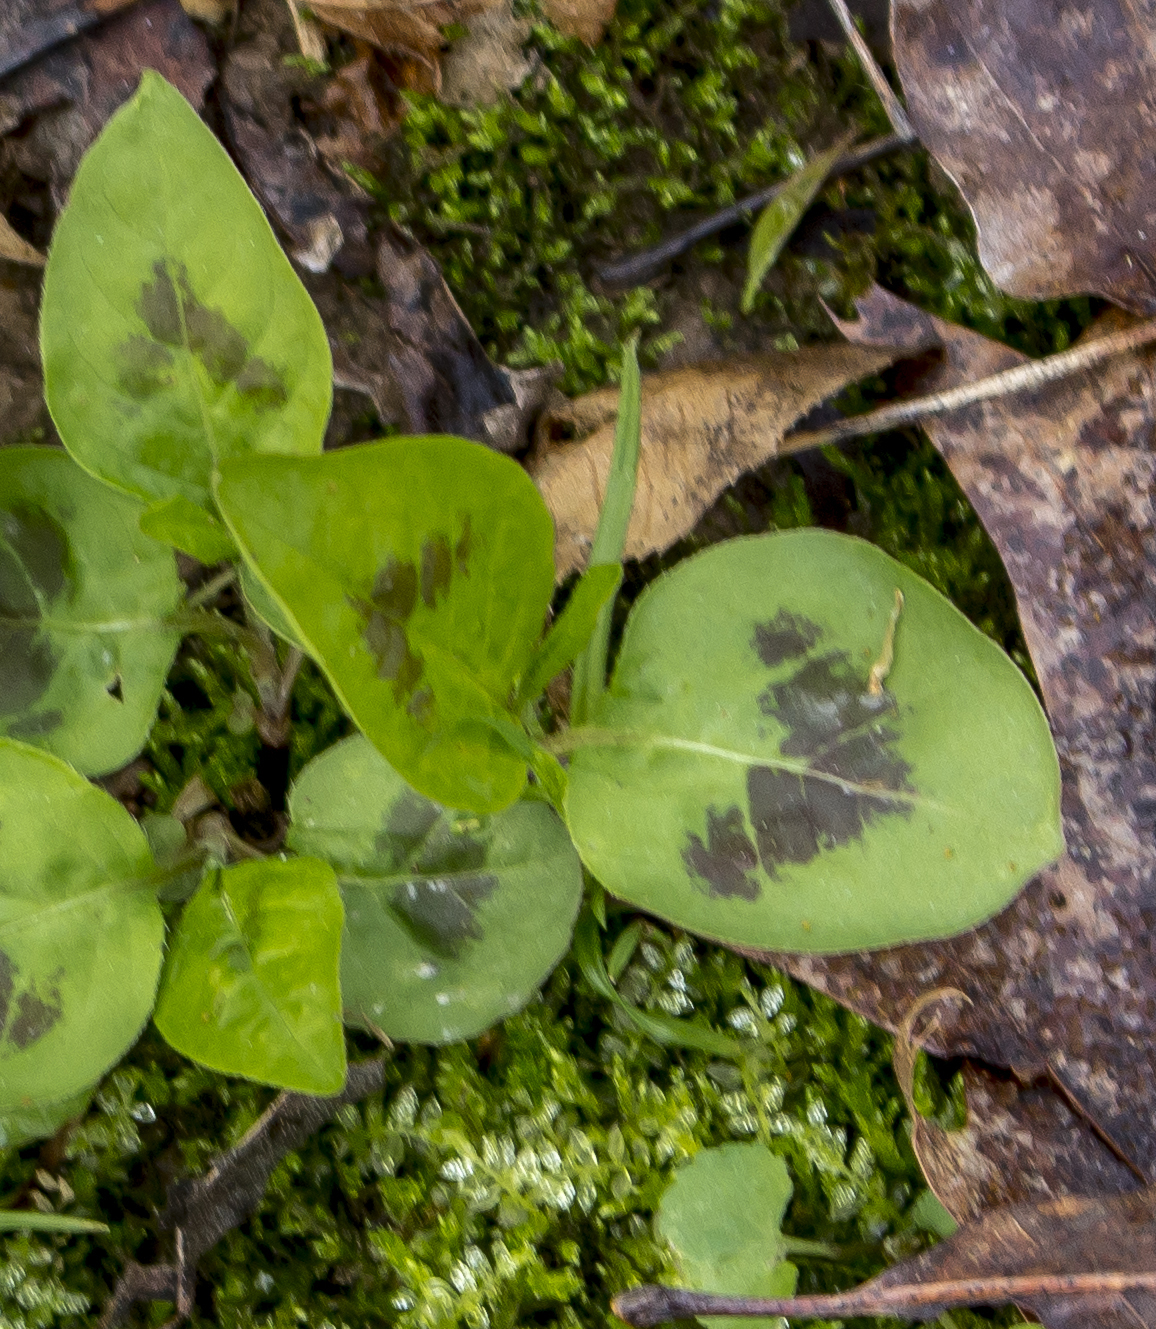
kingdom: Plantae
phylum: Tracheophyta
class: Magnoliopsida
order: Caryophyllales
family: Polygonaceae
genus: Persicaria
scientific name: Persicaria virginiana
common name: Jumpseed
